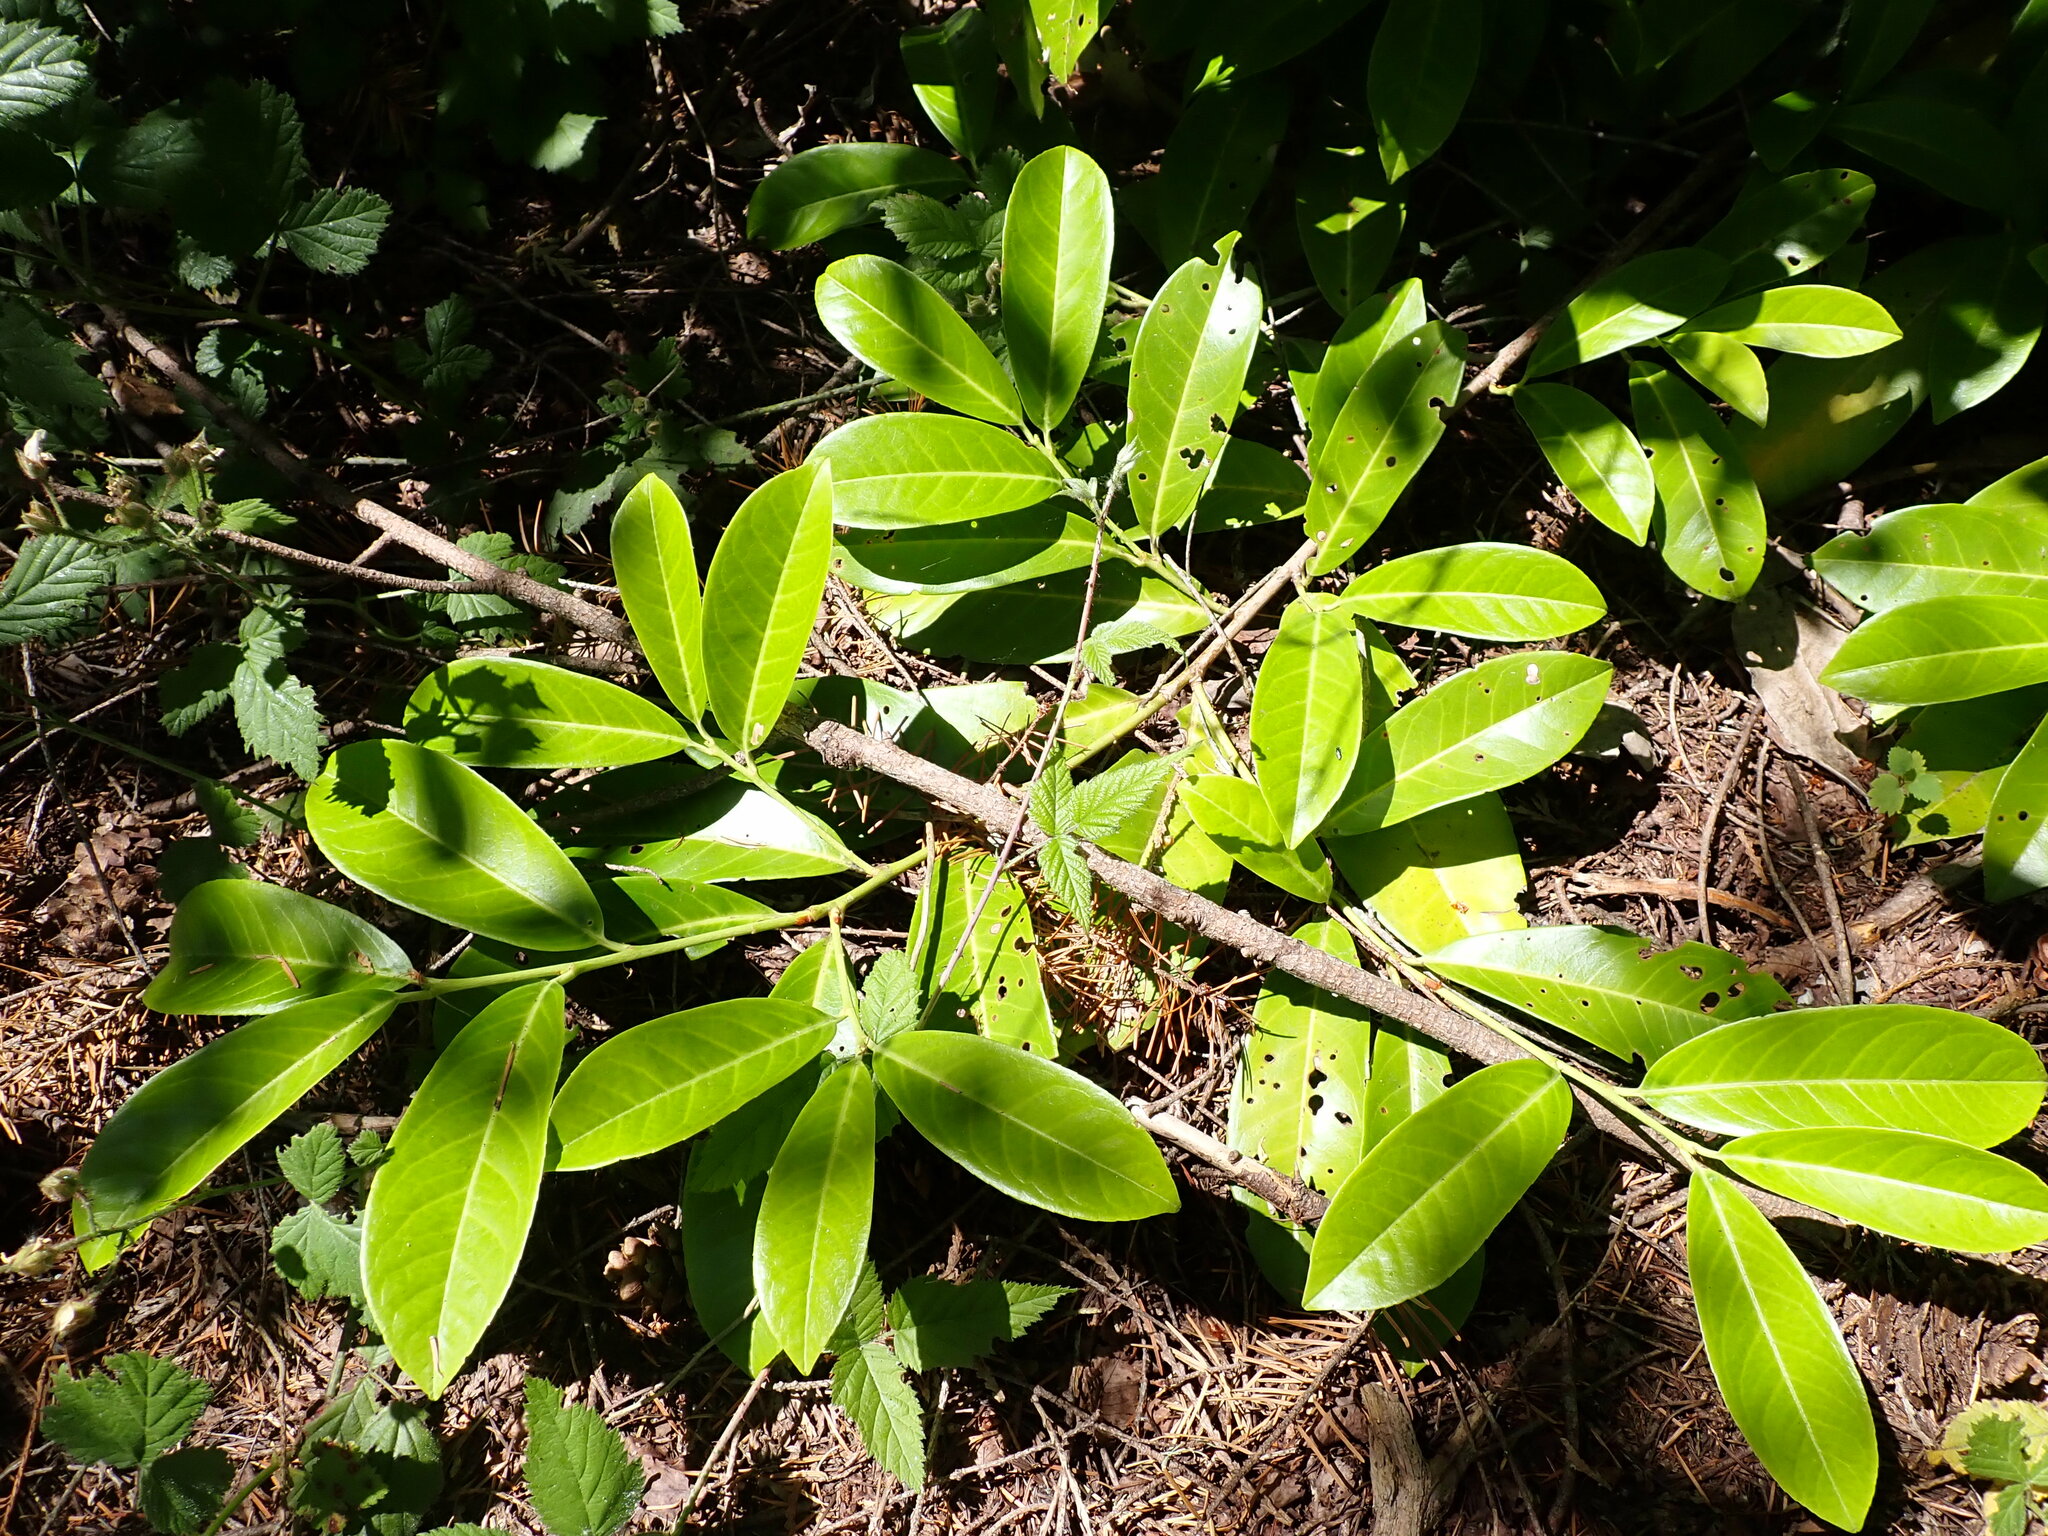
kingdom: Plantae
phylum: Tracheophyta
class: Magnoliopsida
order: Rosales
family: Rosaceae
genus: Prunus
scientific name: Prunus laurocerasus
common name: Cherry laurel
